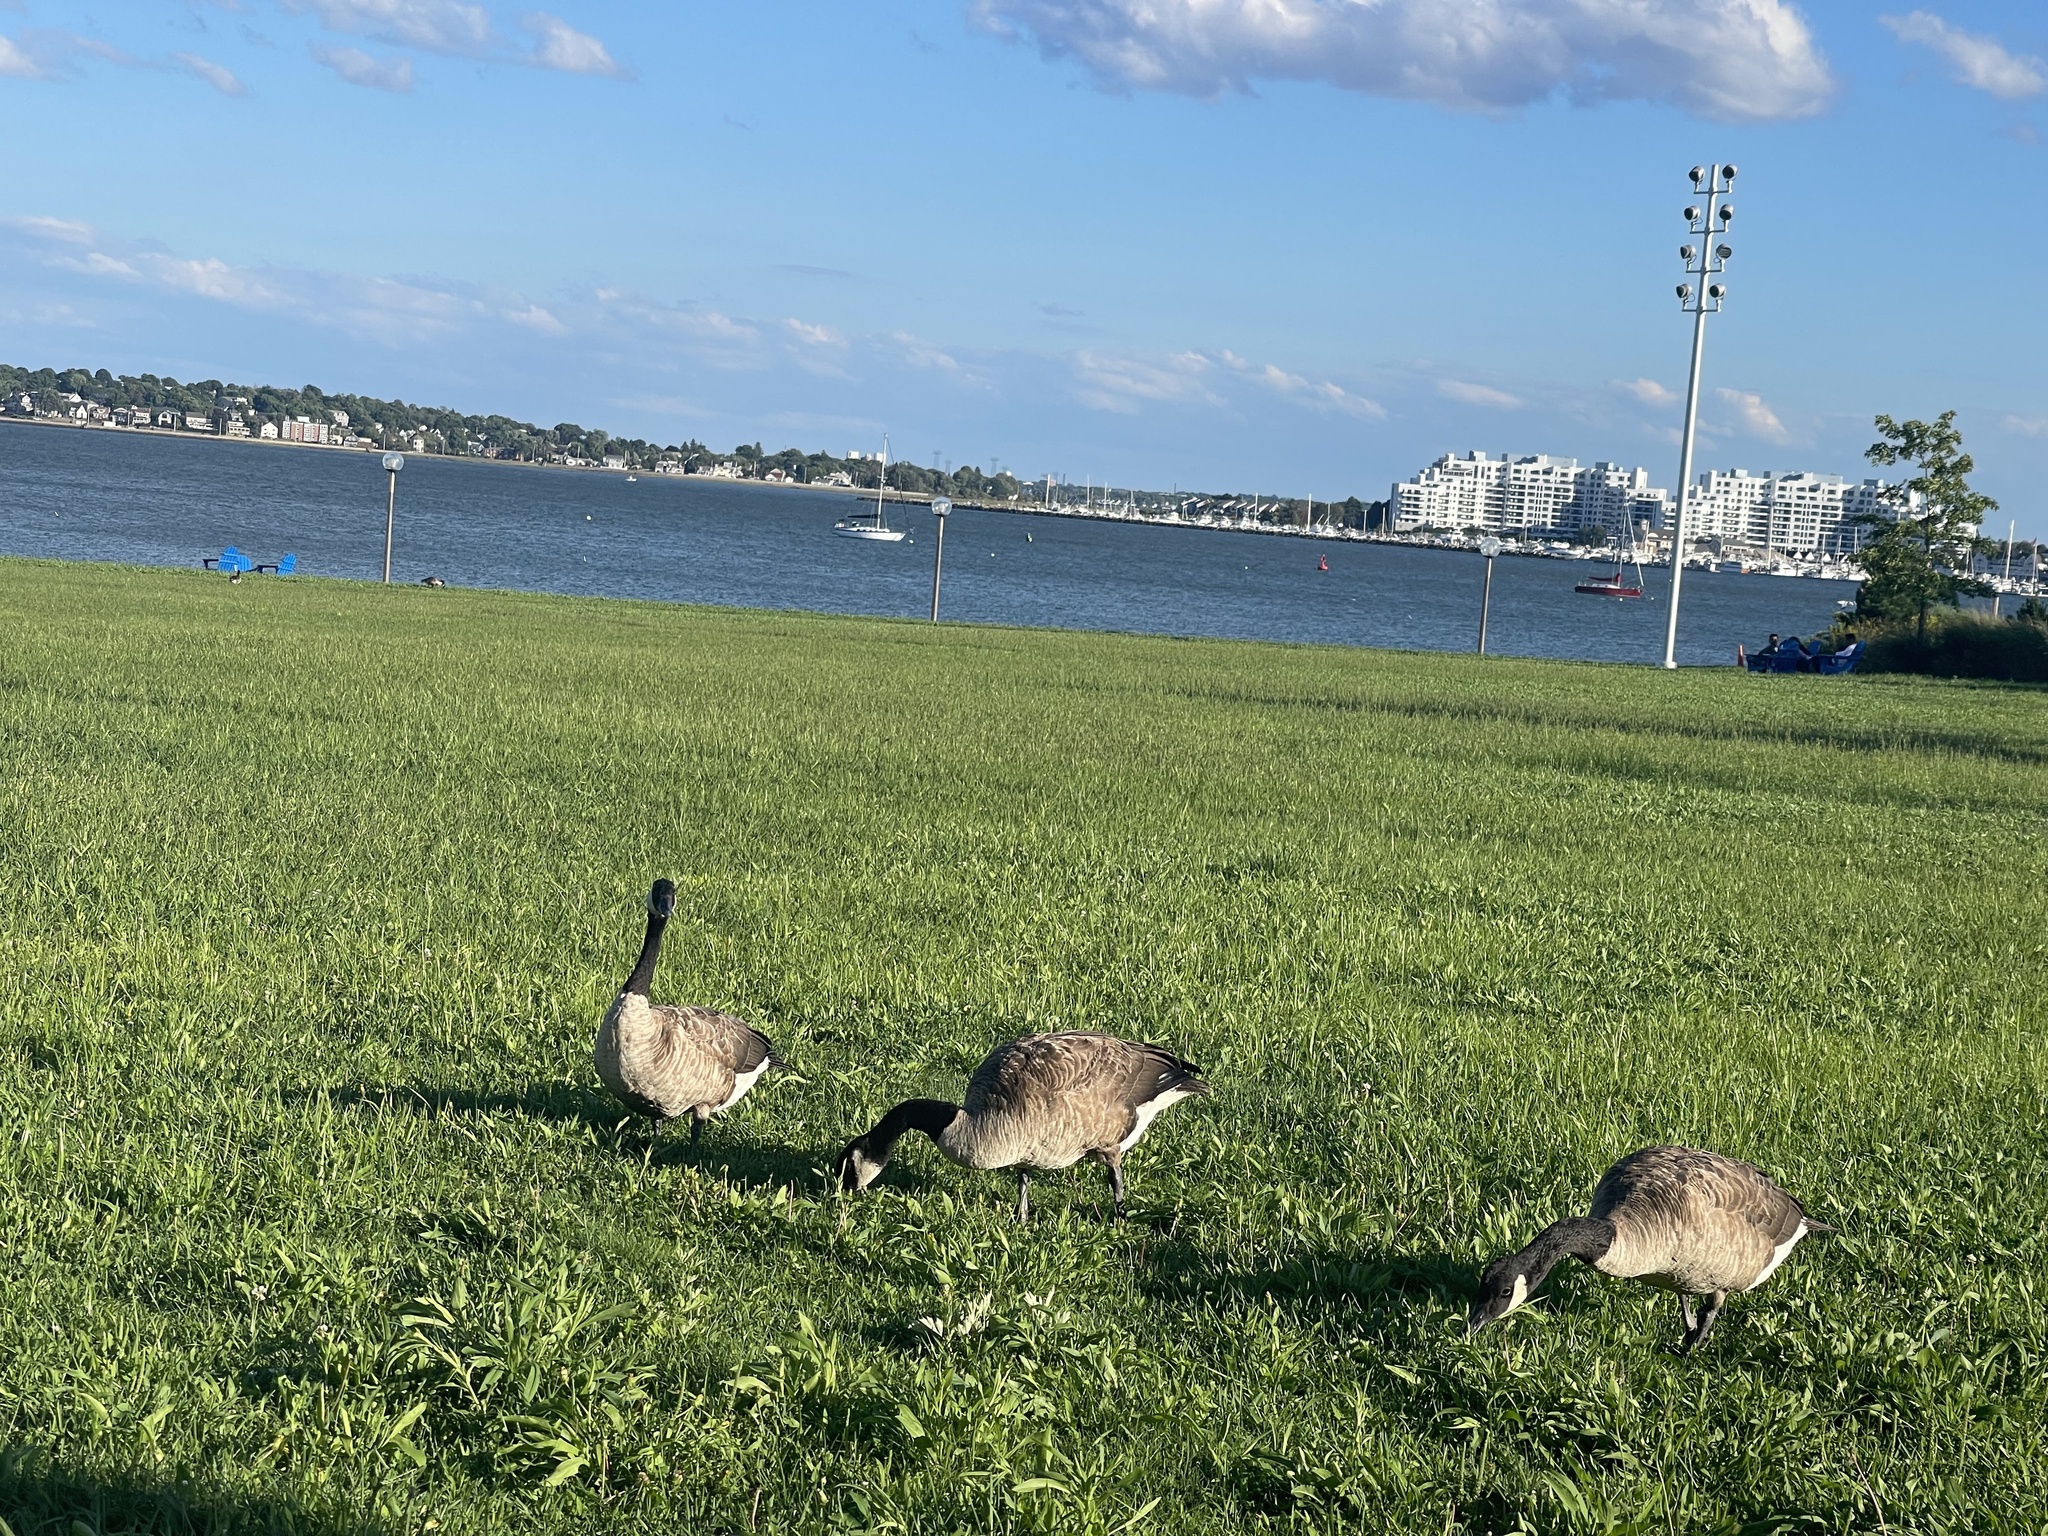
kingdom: Animalia
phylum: Chordata
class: Aves
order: Anseriformes
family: Anatidae
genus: Branta
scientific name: Branta canadensis
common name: Canada goose
